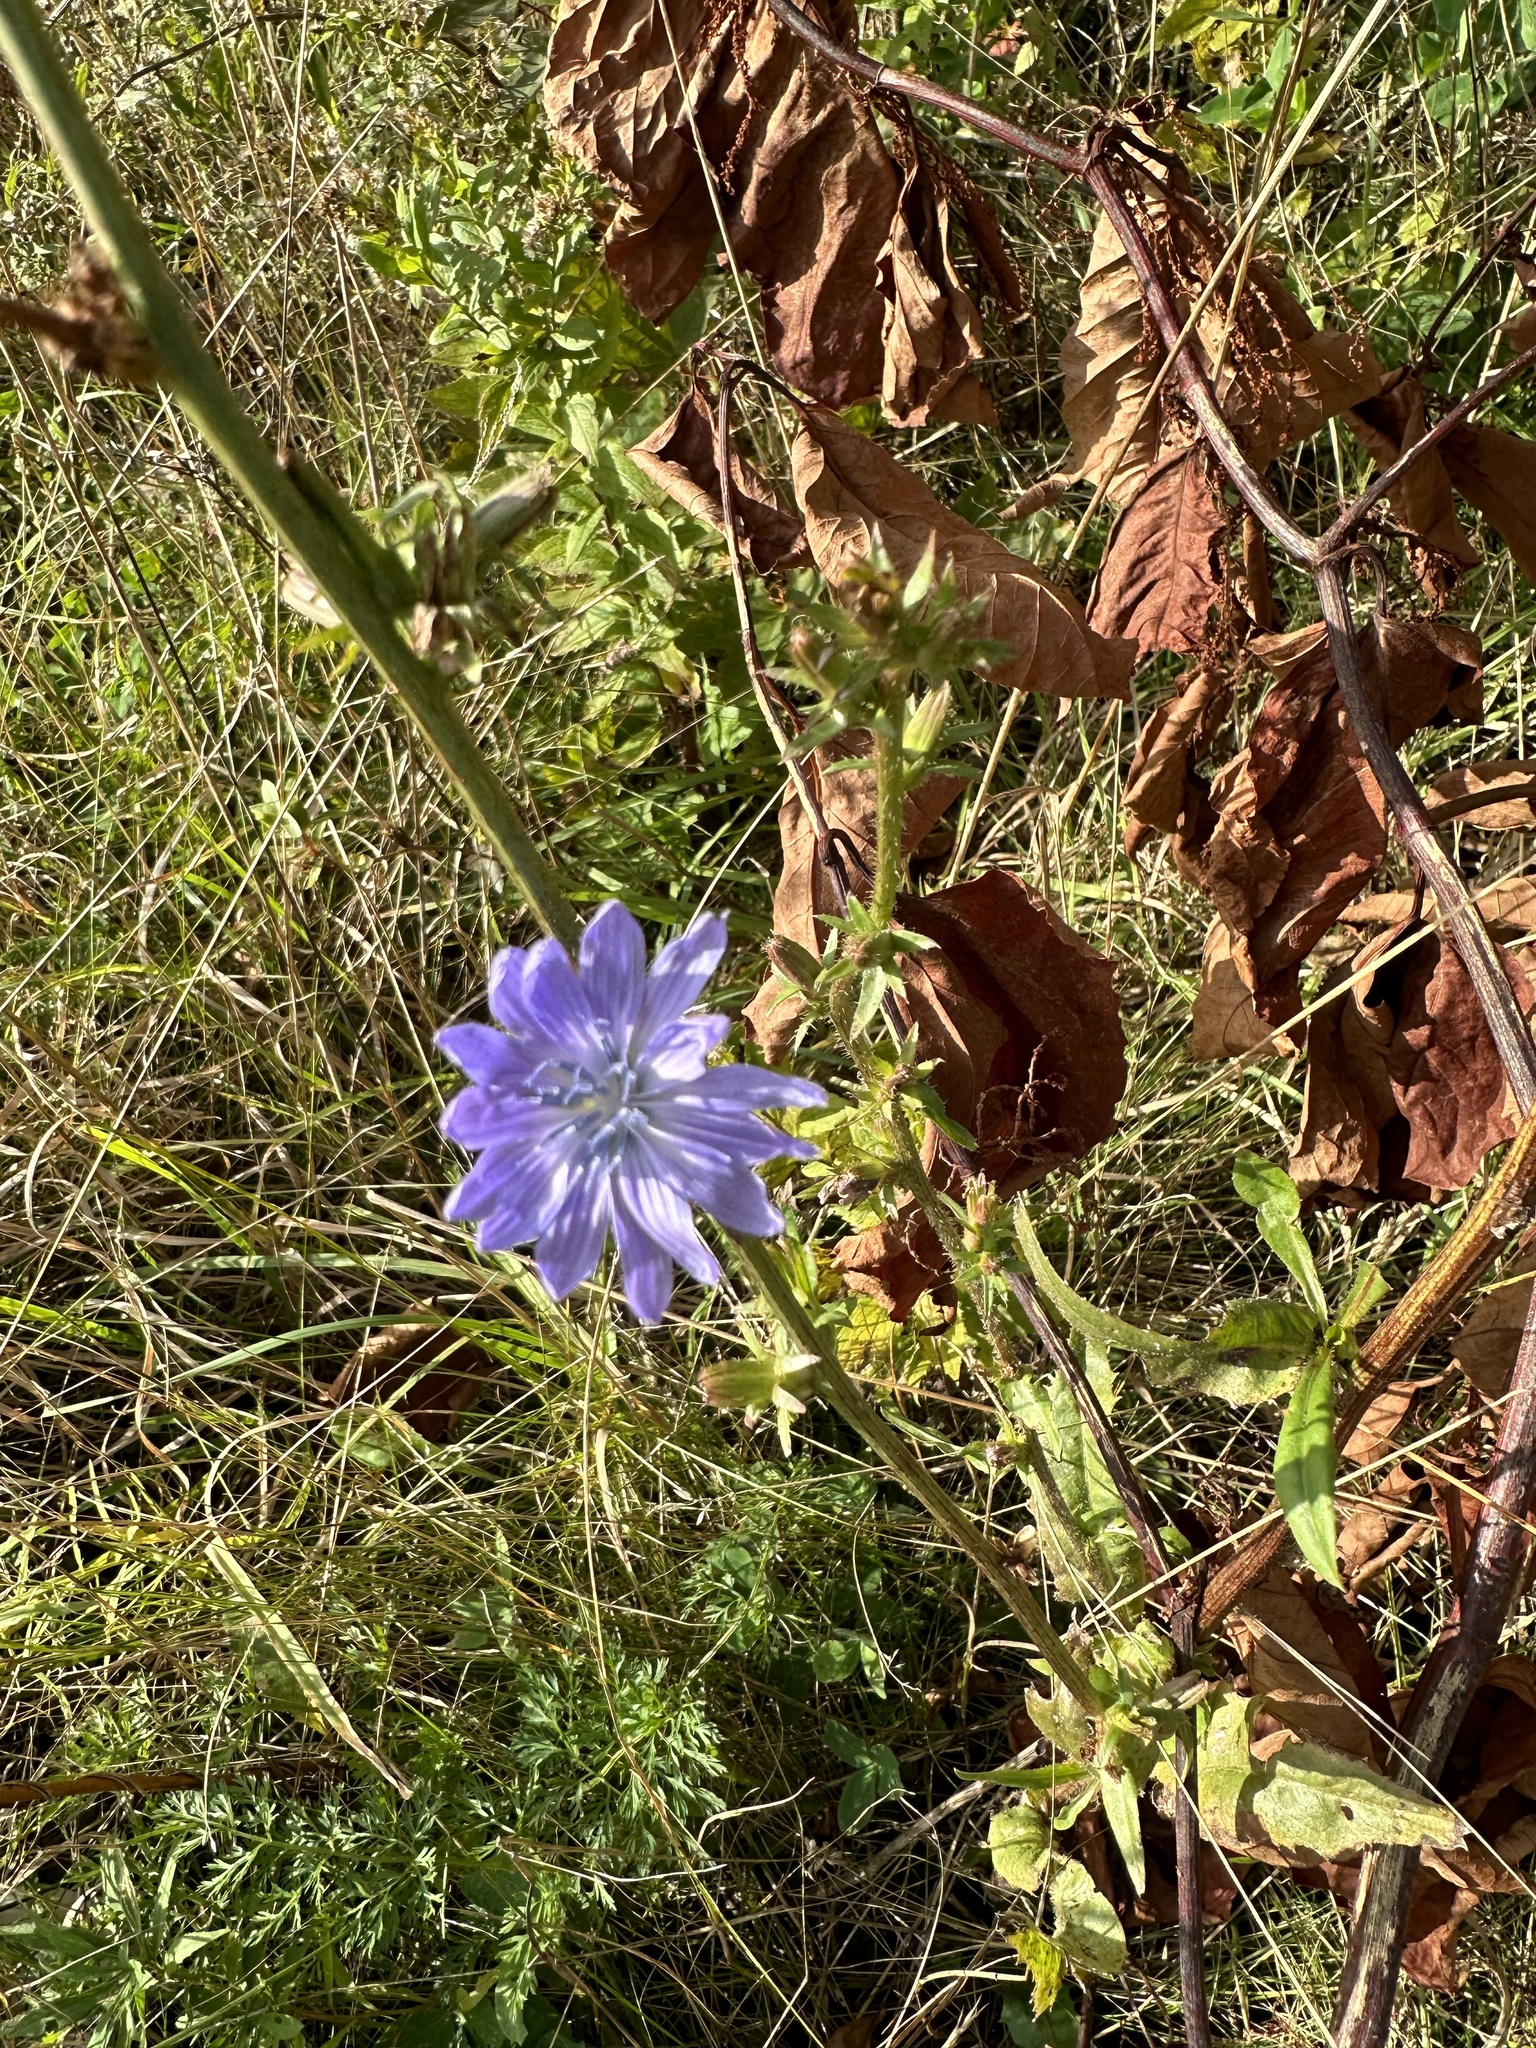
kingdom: Plantae
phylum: Tracheophyta
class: Magnoliopsida
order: Asterales
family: Asteraceae
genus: Cichorium
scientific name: Cichorium intybus
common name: Chicory
